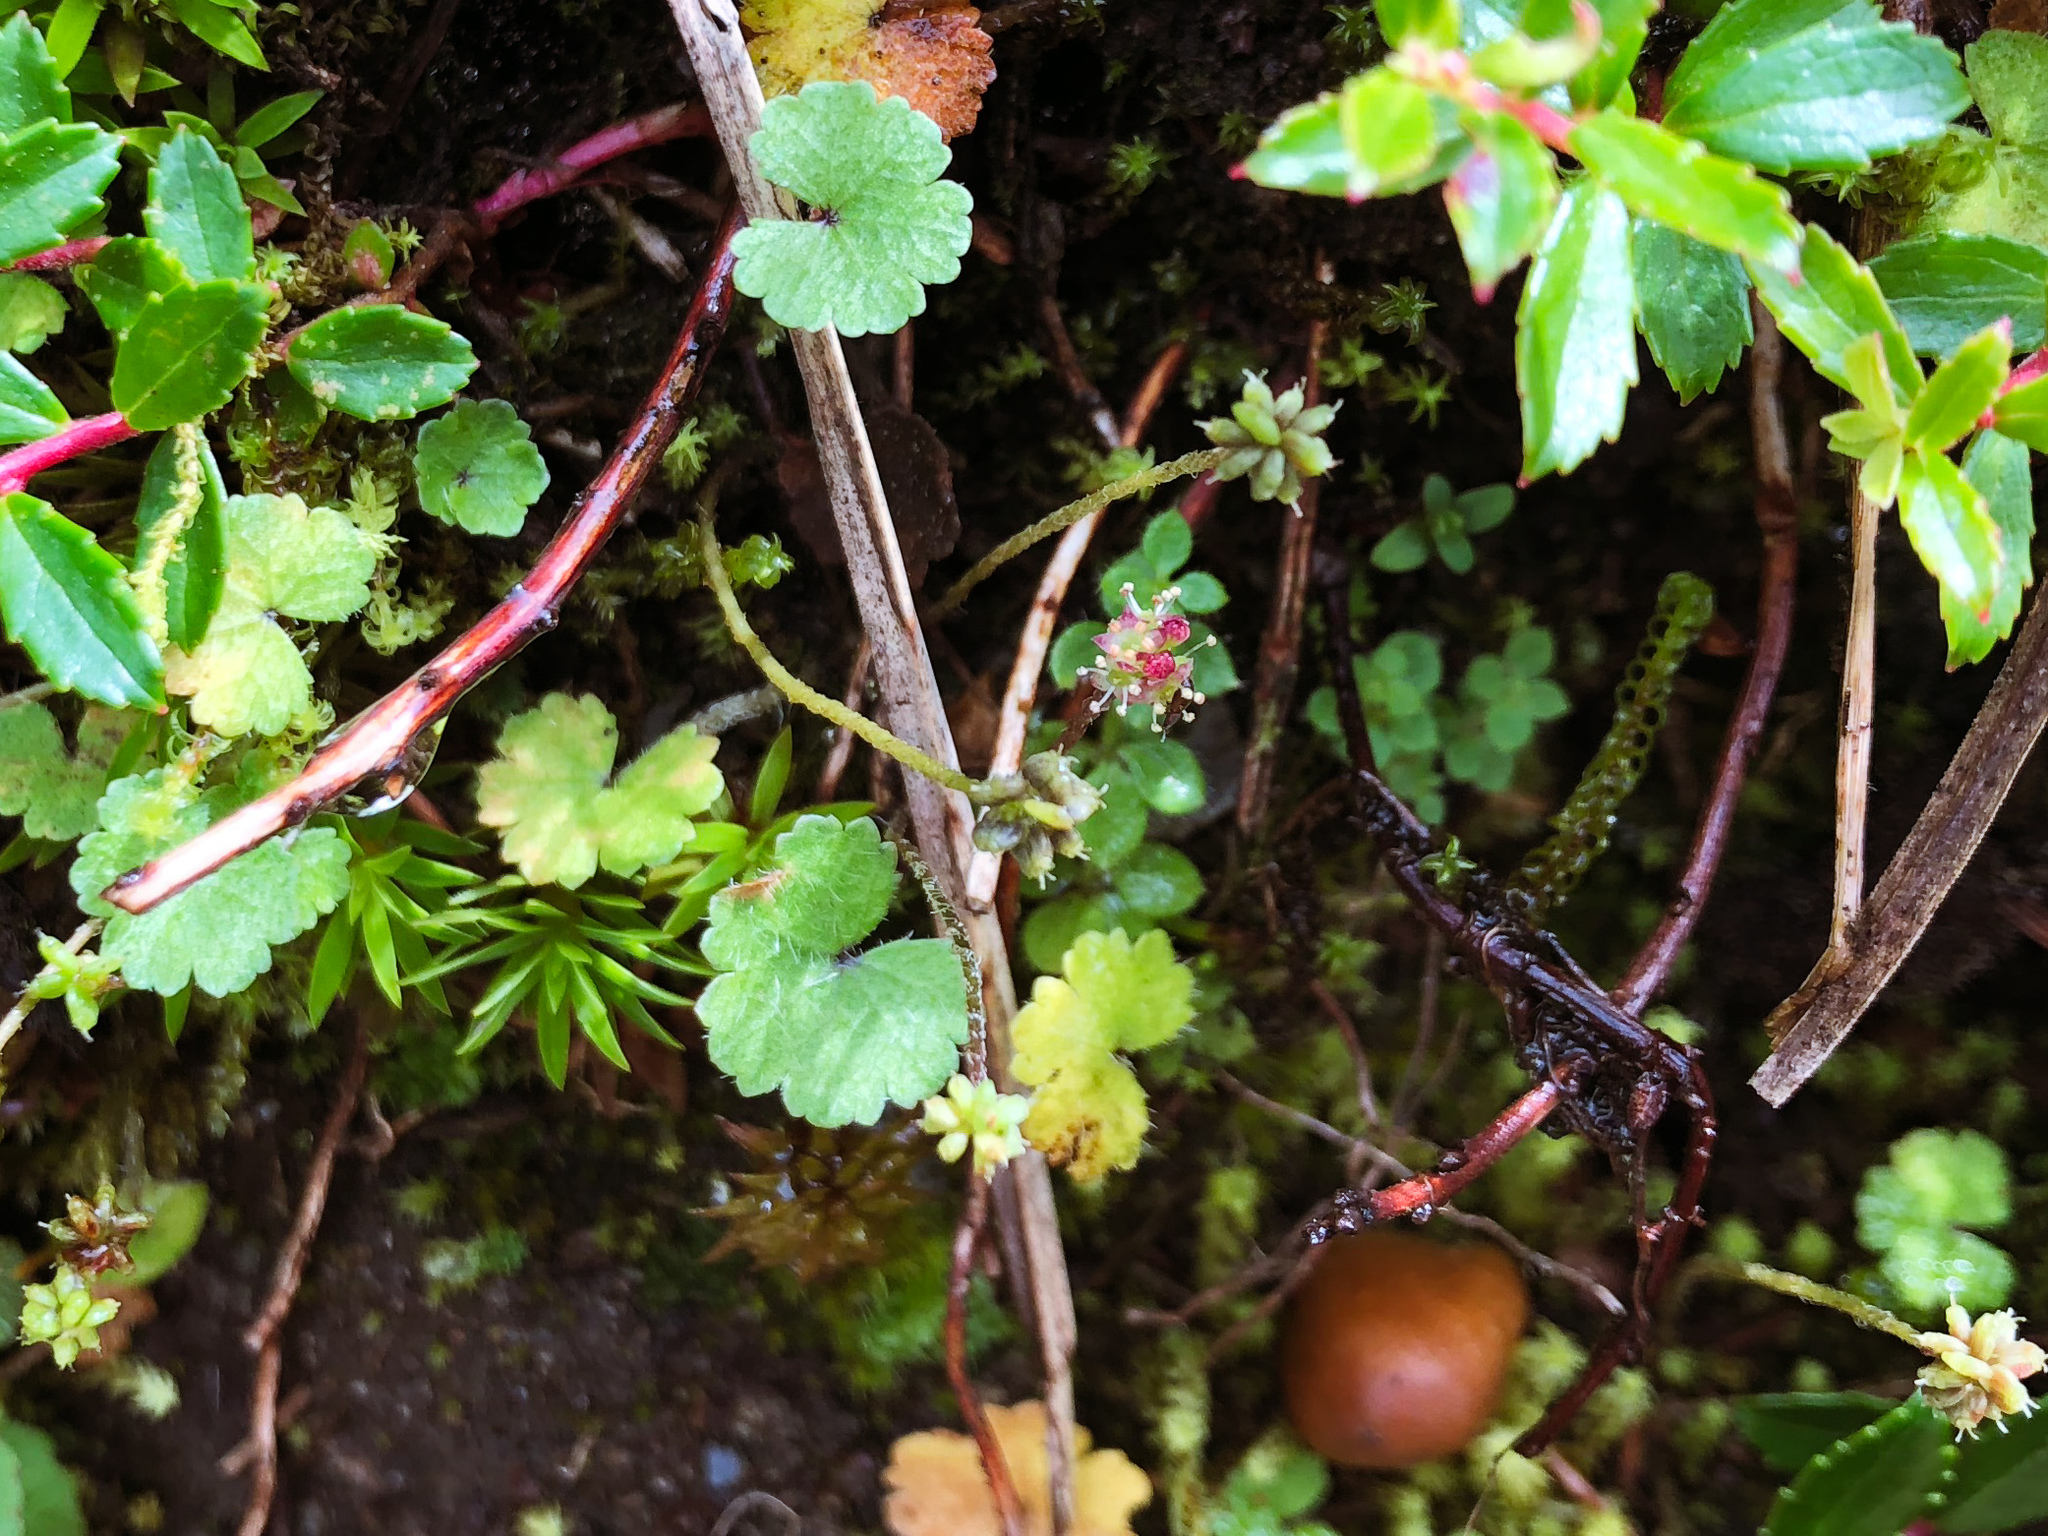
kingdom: Plantae
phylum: Tracheophyta
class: Magnoliopsida
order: Apiales
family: Araliaceae
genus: Hydrocotyle
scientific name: Hydrocotyle setulosa
